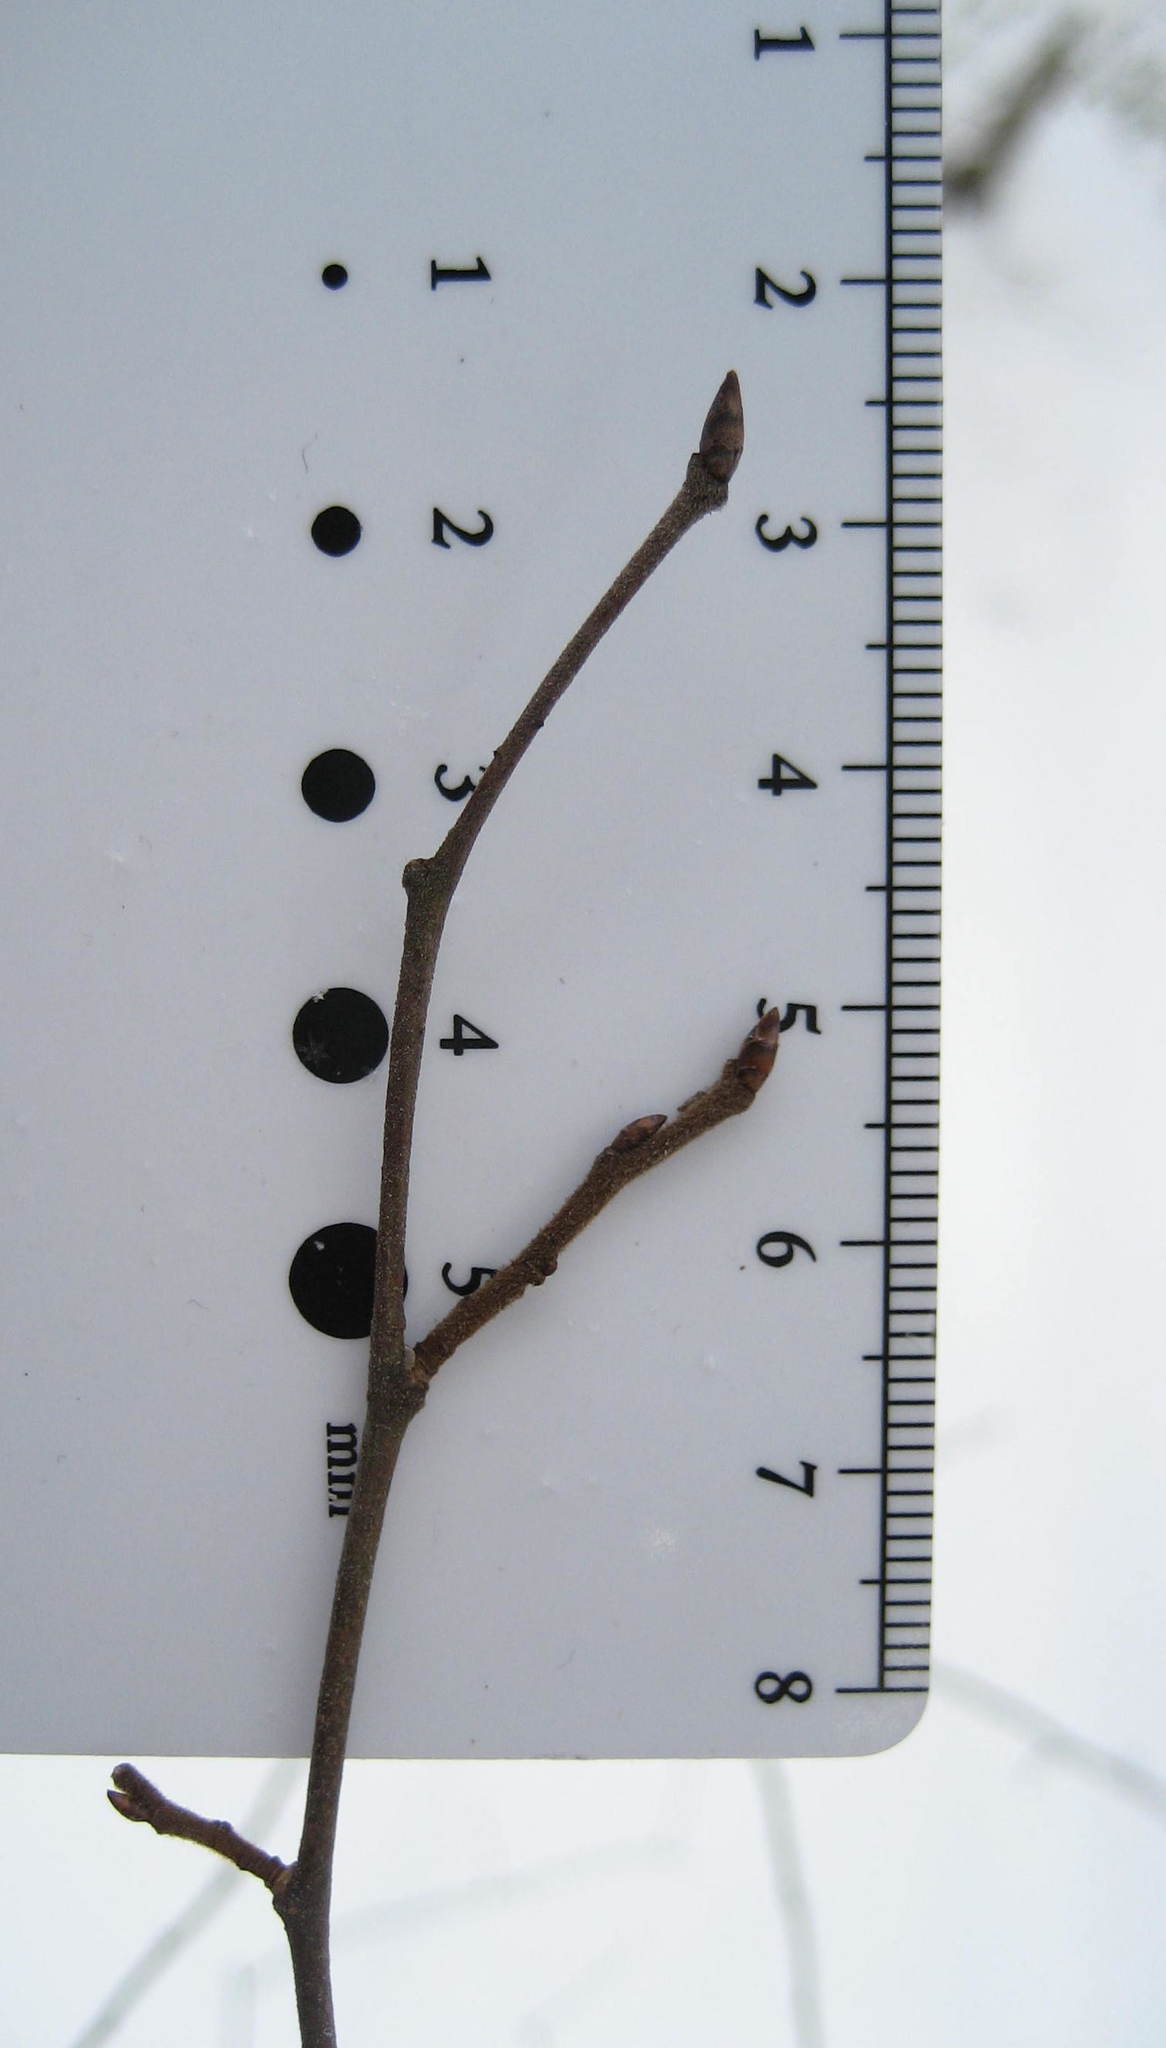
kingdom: Plantae
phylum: Tracheophyta
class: Magnoliopsida
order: Rosales
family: Ulmaceae
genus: Ulmus
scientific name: Ulmus americana
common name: American elm
